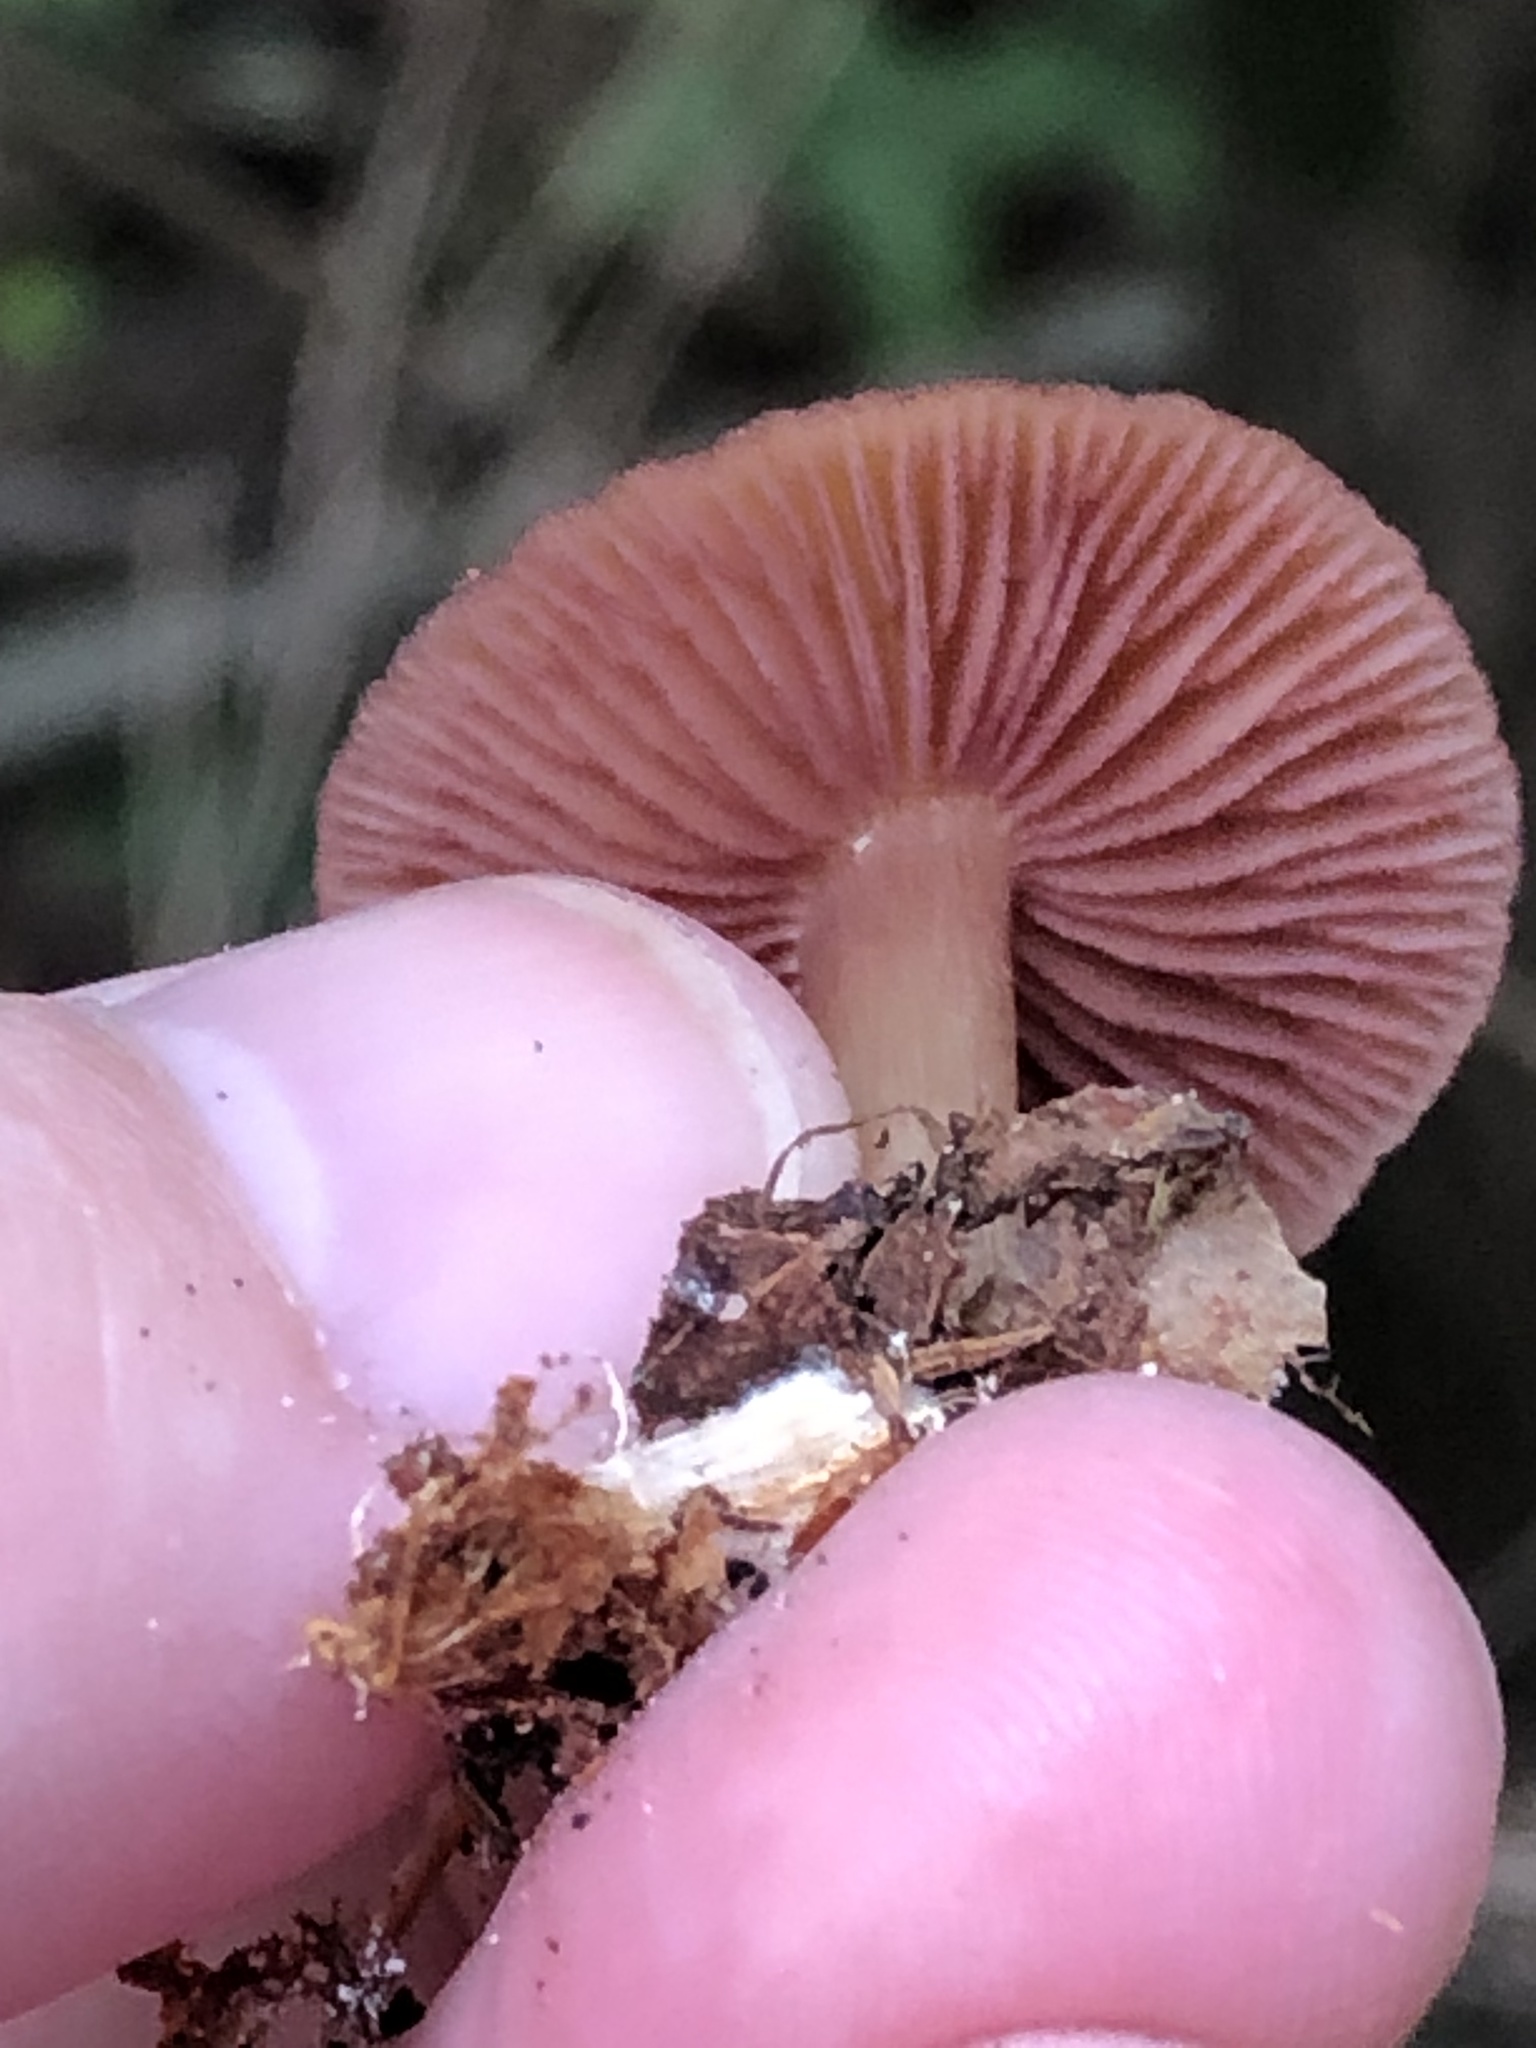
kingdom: Fungi
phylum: Basidiomycota
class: Agaricomycetes
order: Agaricales
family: Mycenaceae
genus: Mycena
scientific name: Mycena denticulata
